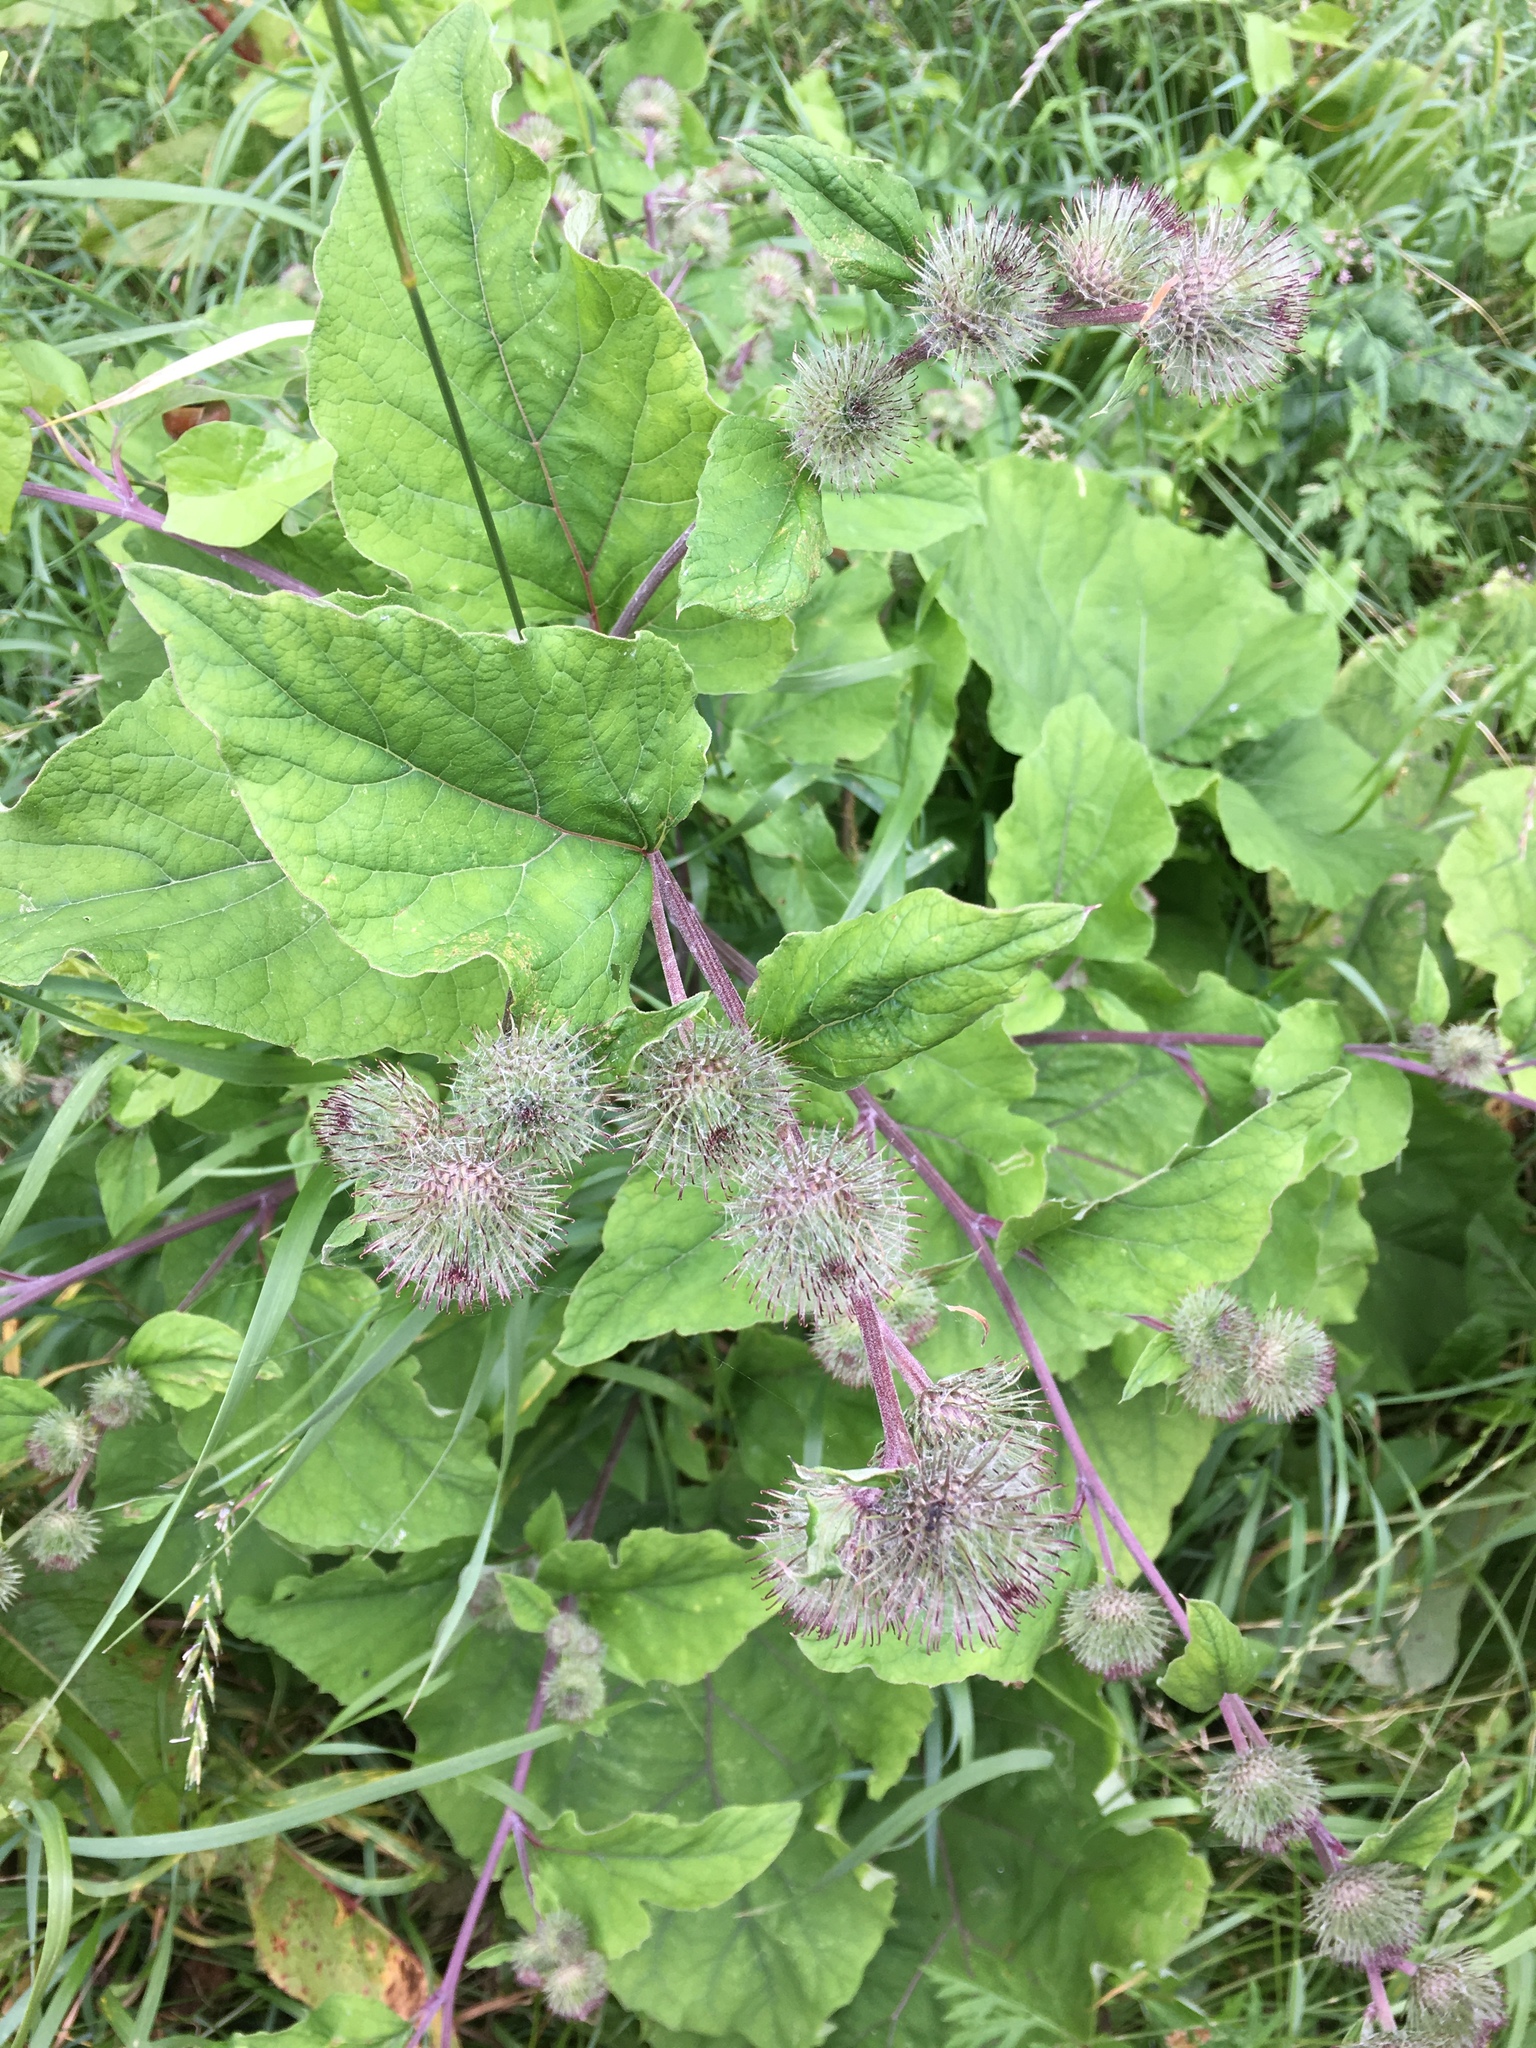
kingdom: Plantae
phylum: Tracheophyta
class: Magnoliopsida
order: Asterales
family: Asteraceae
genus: Arctium
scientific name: Arctium tomentosum
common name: Woolly burdock
